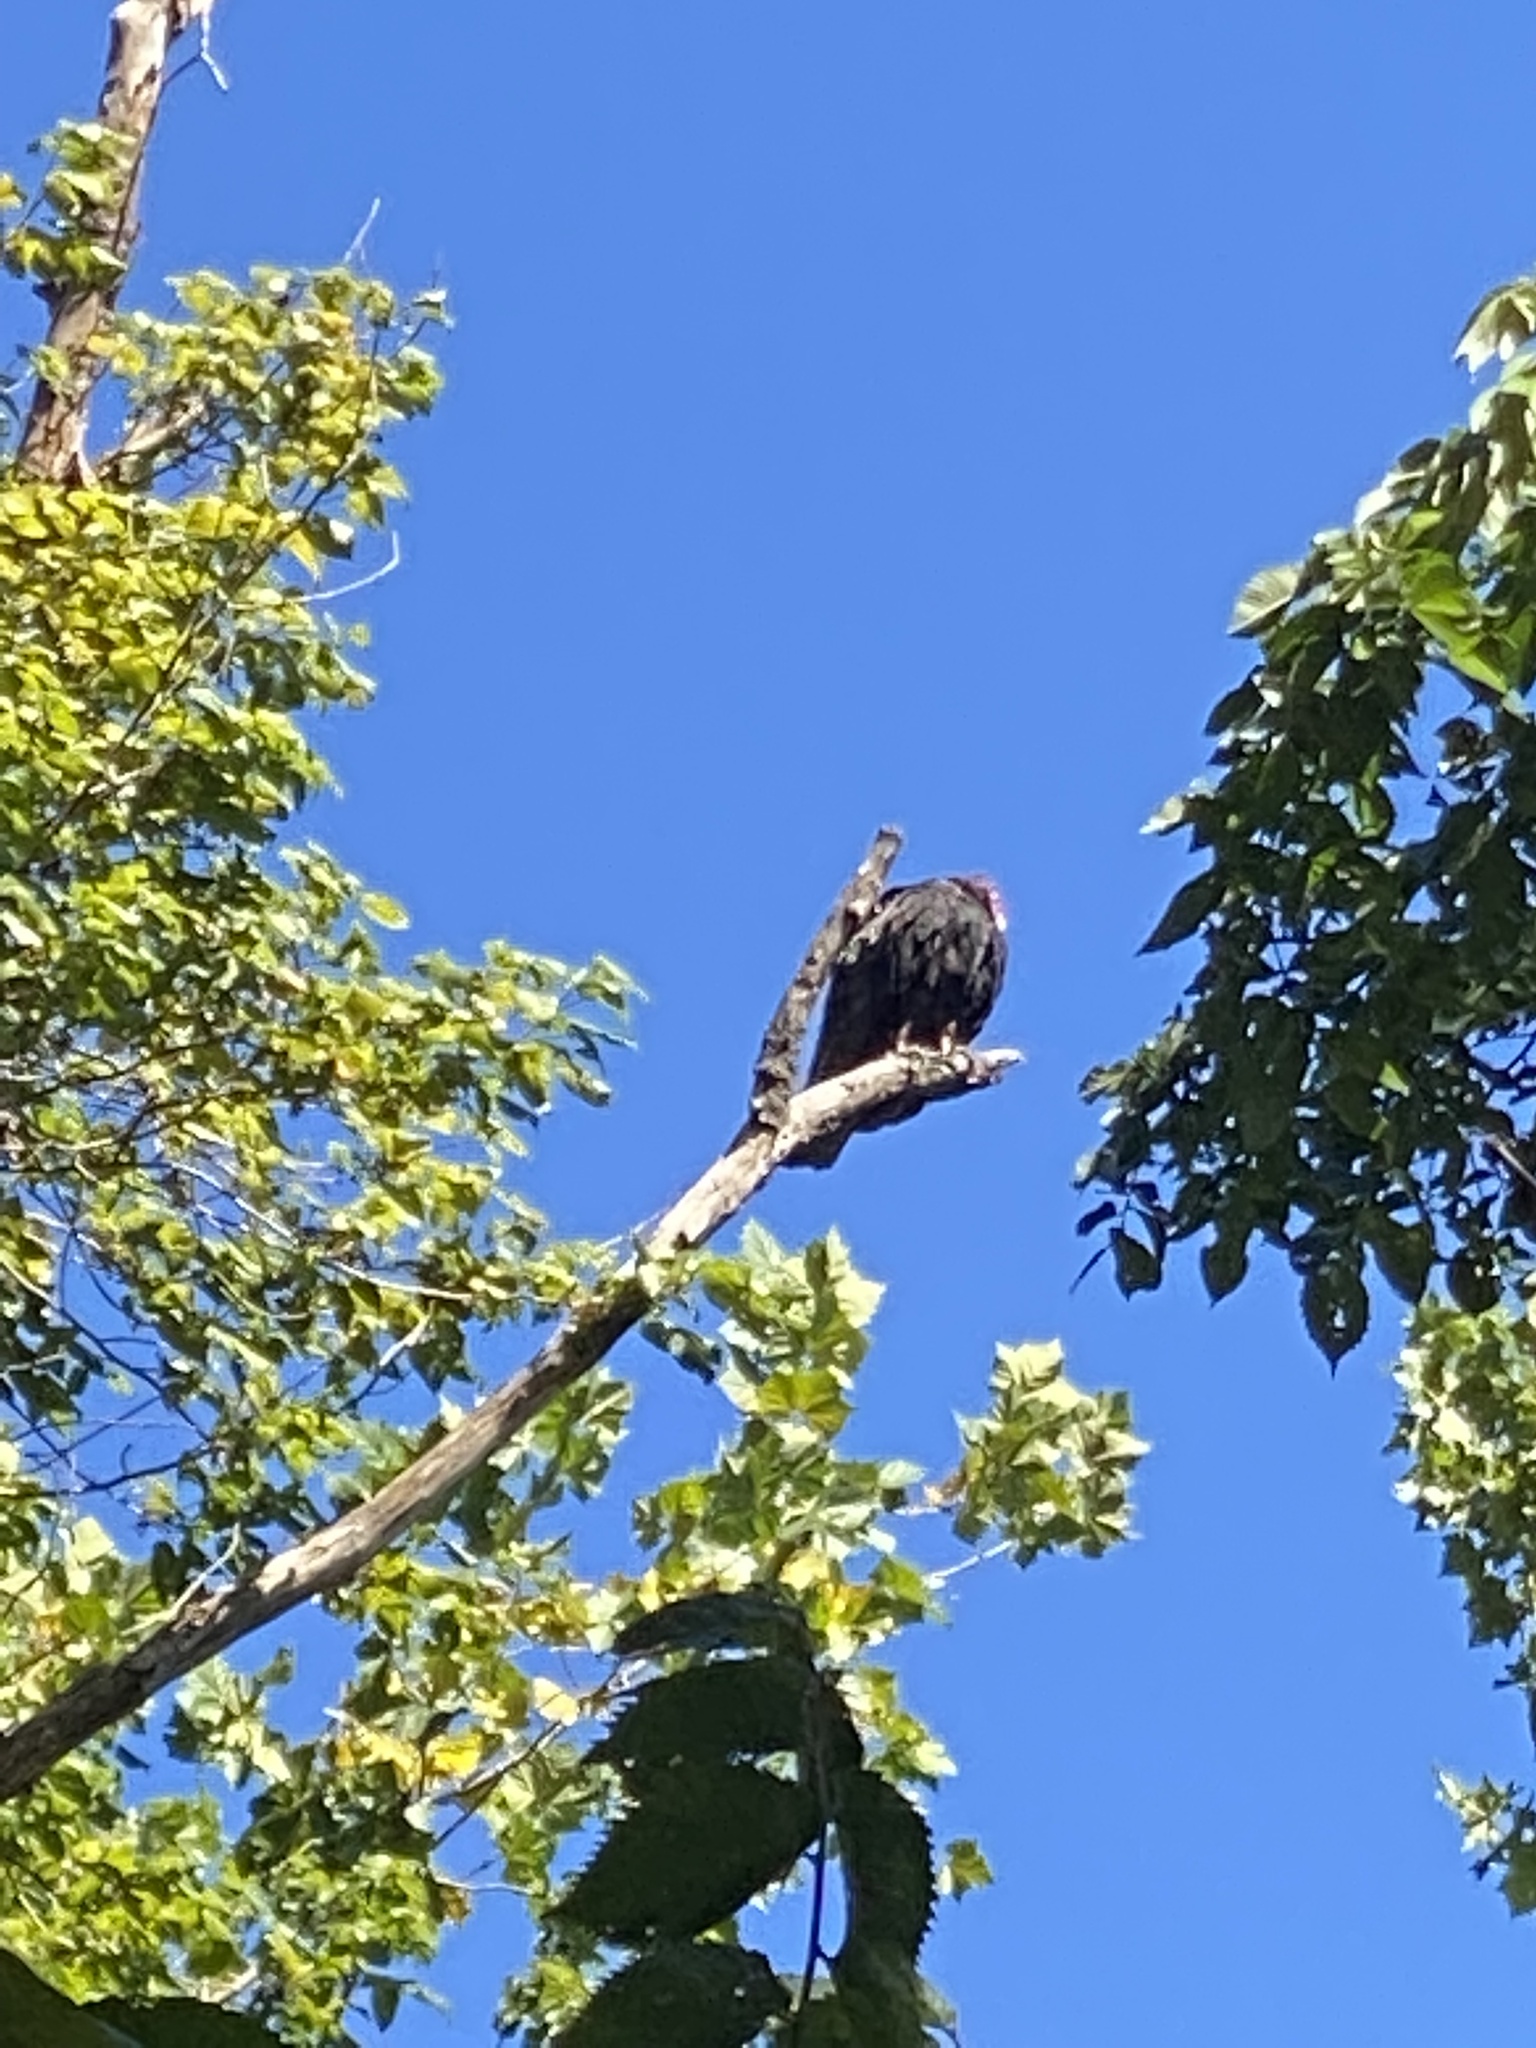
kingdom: Animalia
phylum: Chordata
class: Aves
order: Accipitriformes
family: Cathartidae
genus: Cathartes
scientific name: Cathartes aura
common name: Turkey vulture
